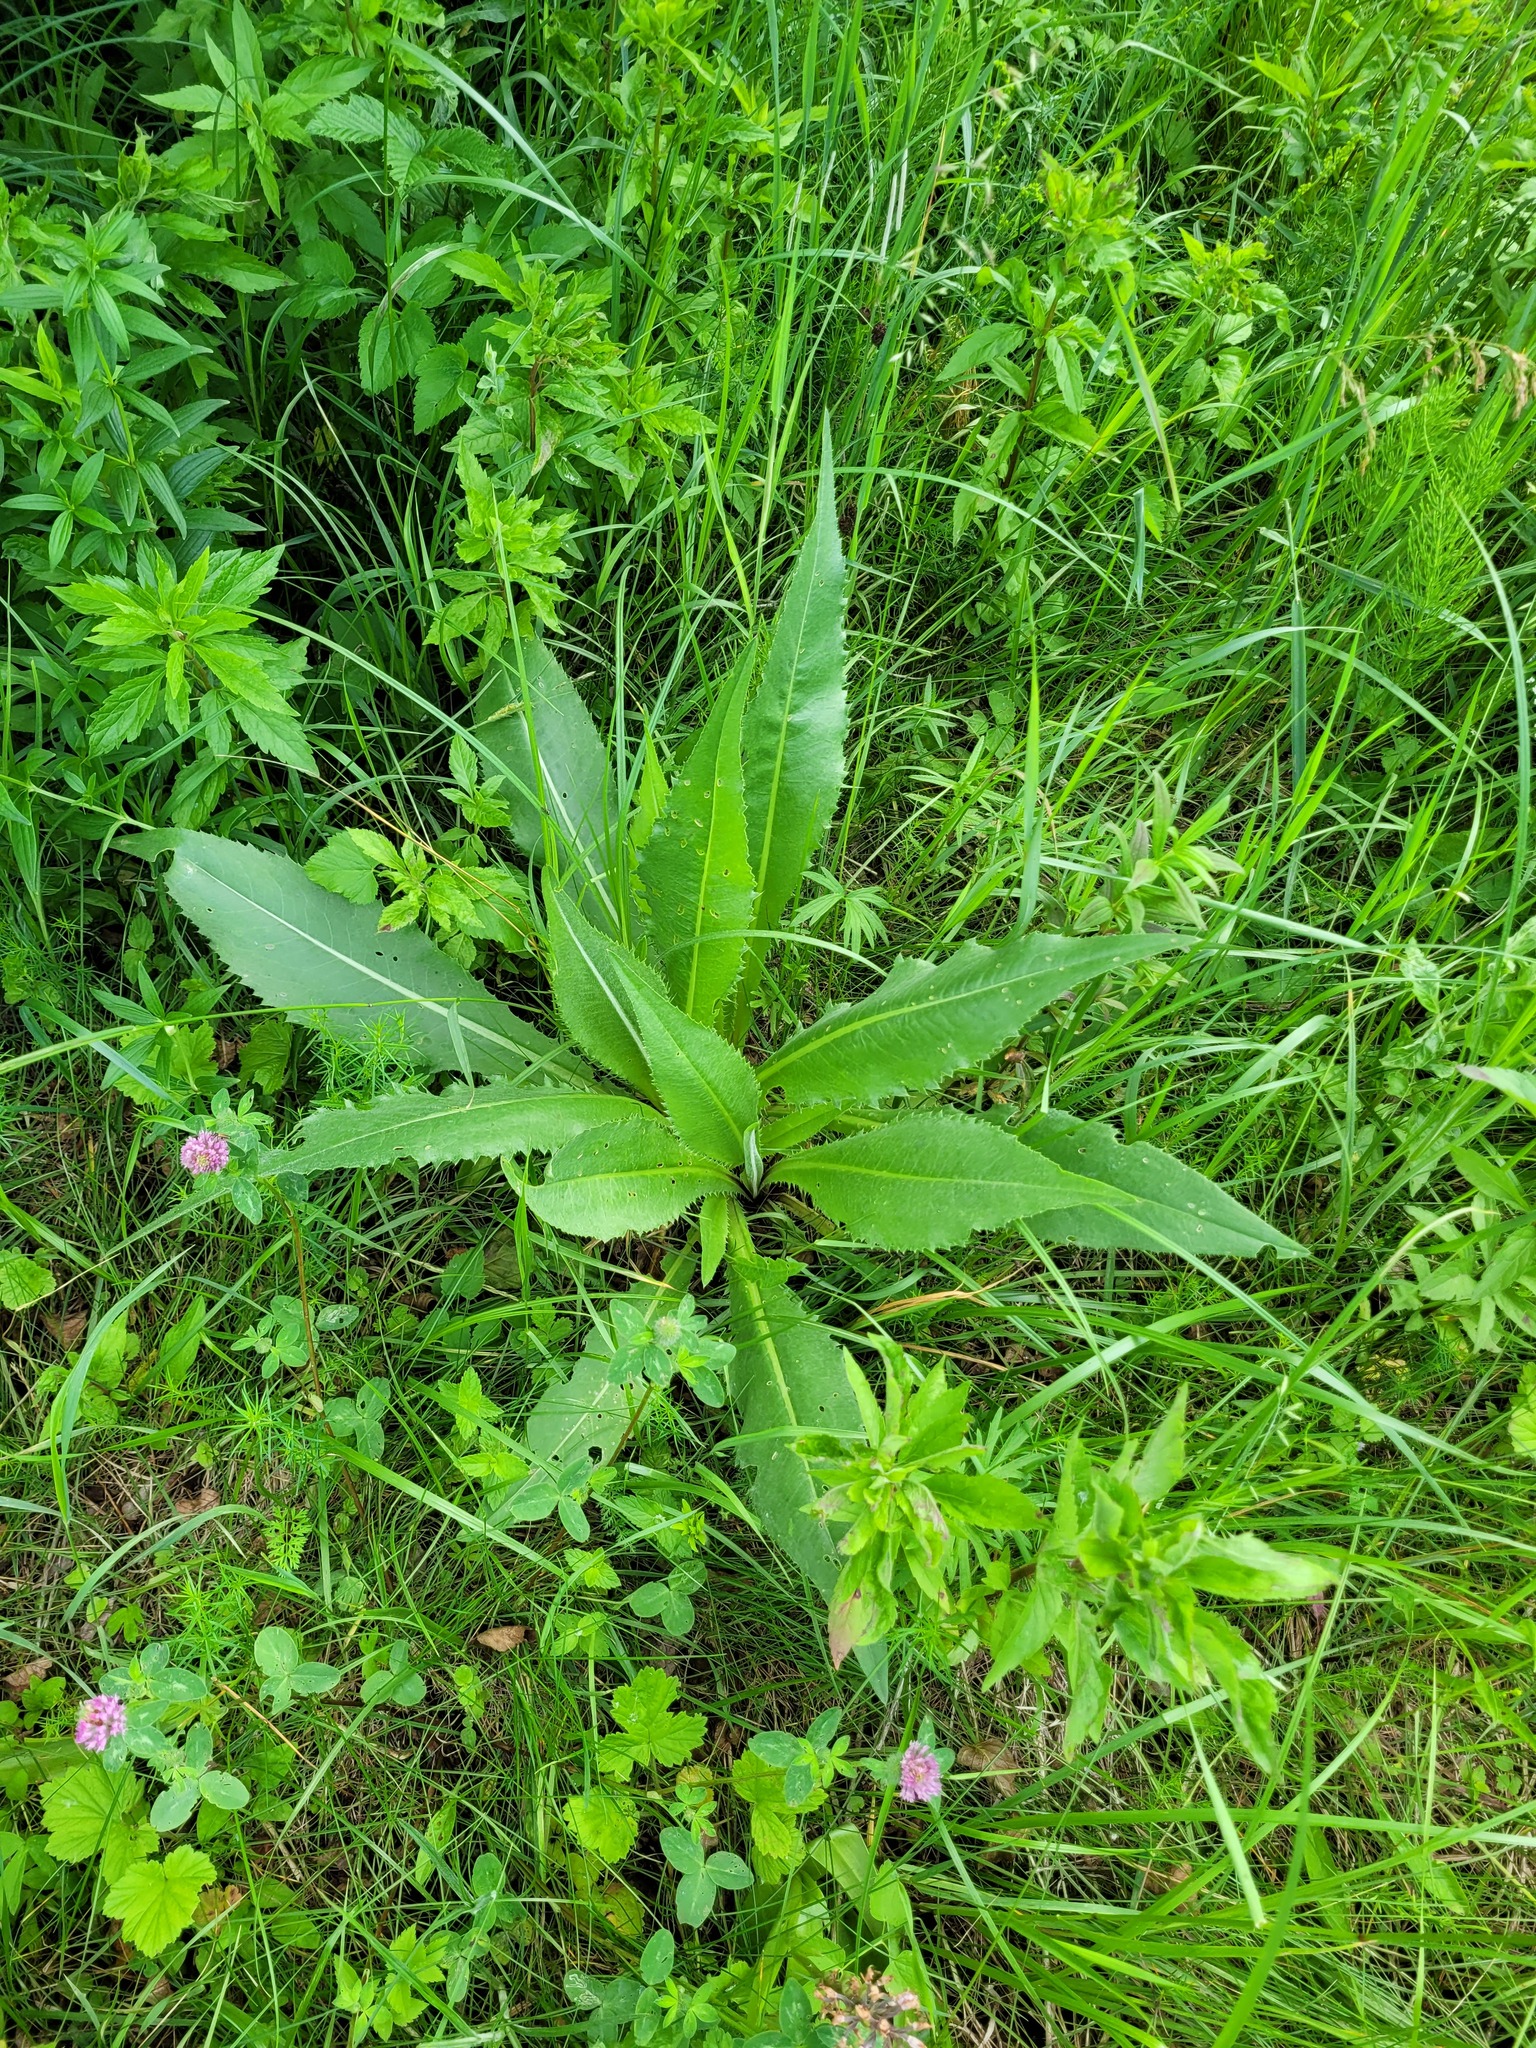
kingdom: Plantae
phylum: Tracheophyta
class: Magnoliopsida
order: Asterales
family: Asteraceae
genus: Cirsium
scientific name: Cirsium canum
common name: Queen anne's thistle
